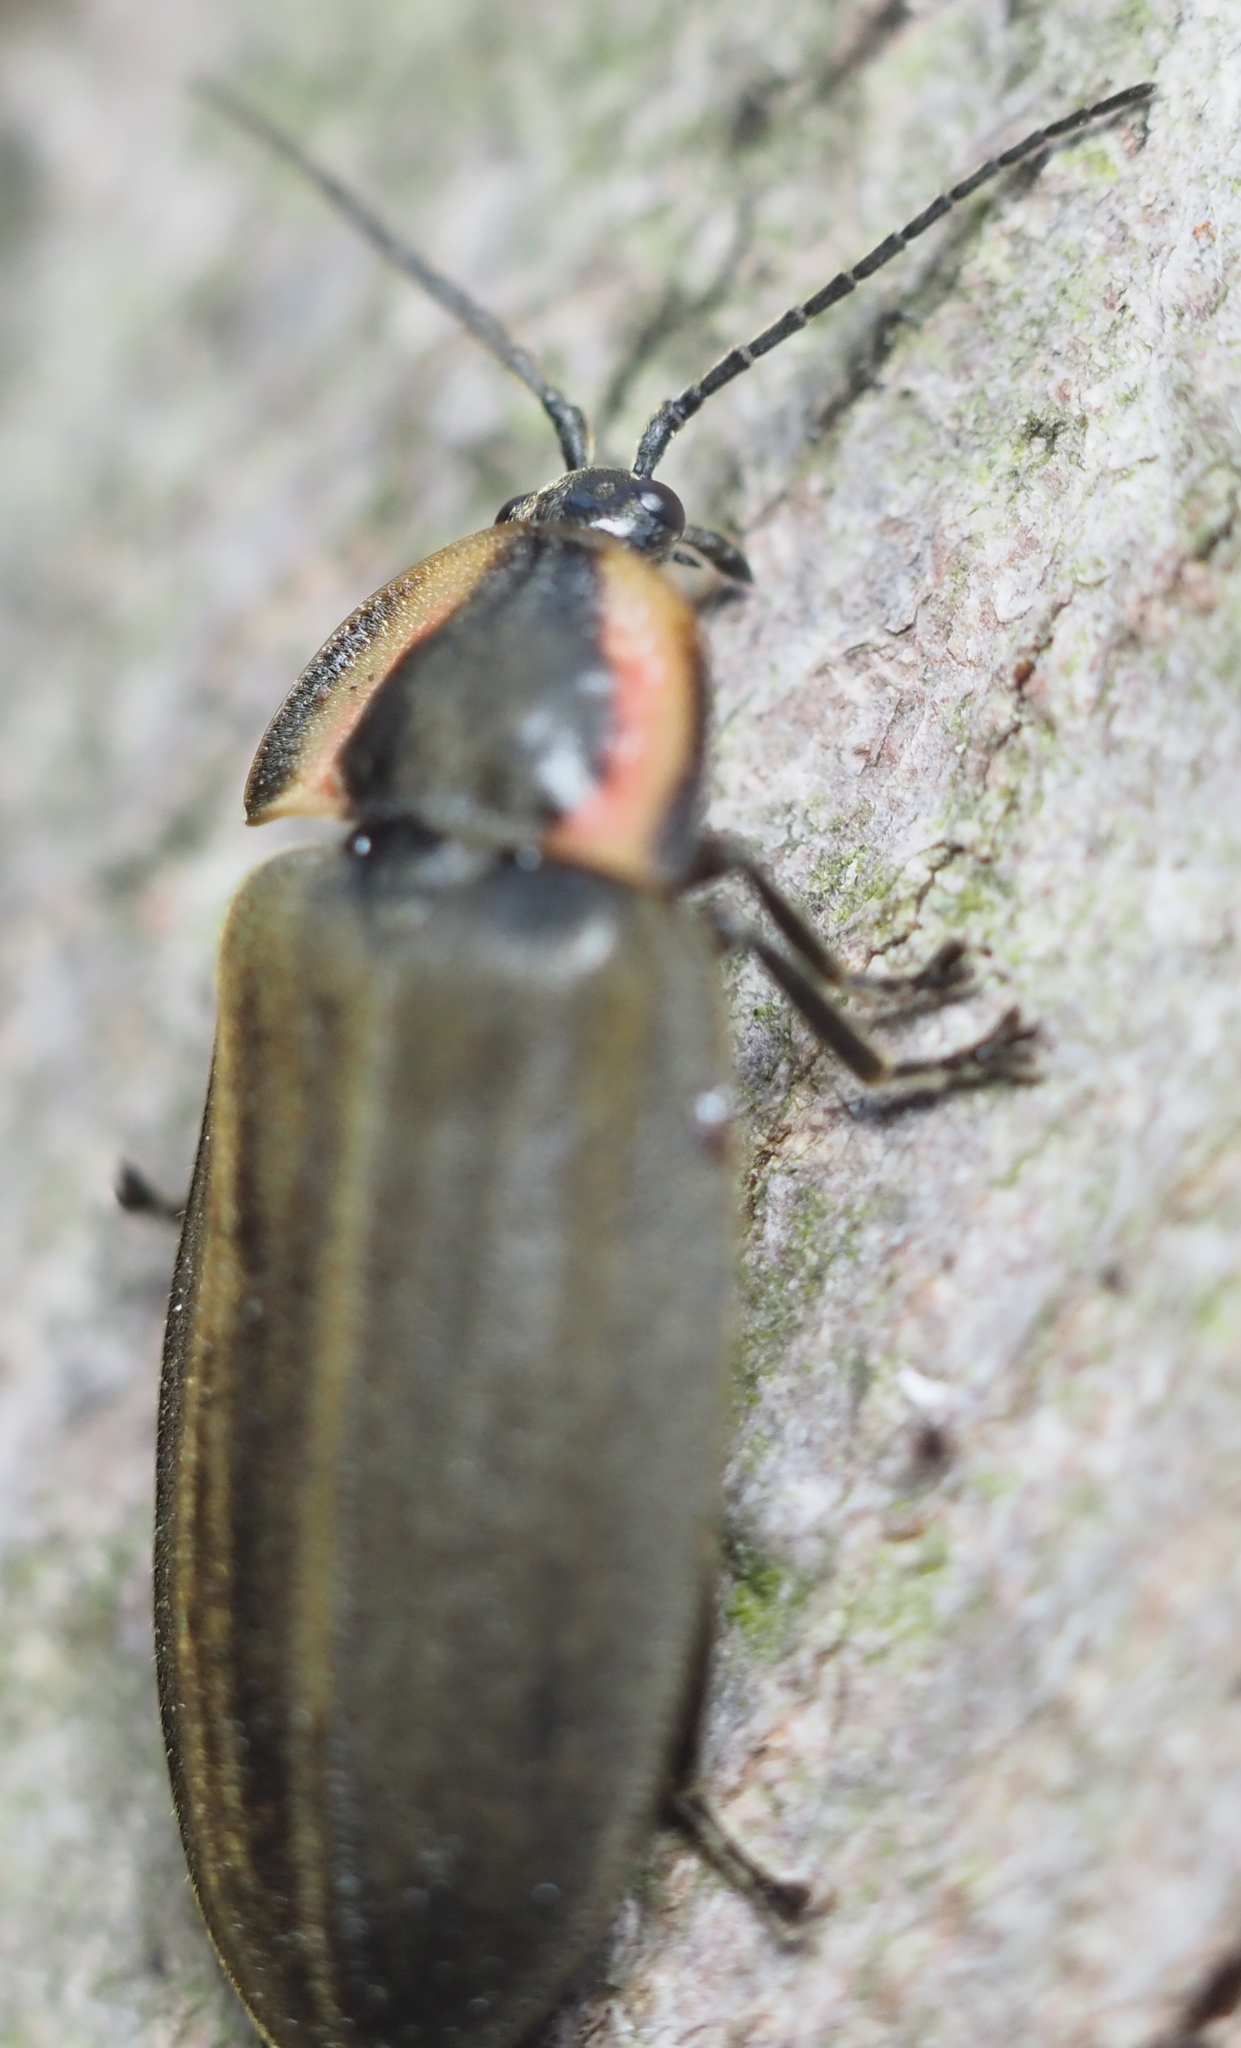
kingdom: Animalia
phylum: Arthropoda
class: Insecta
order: Coleoptera
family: Lampyridae
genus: Photinus
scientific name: Photinus corrusca
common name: Winter firefly
